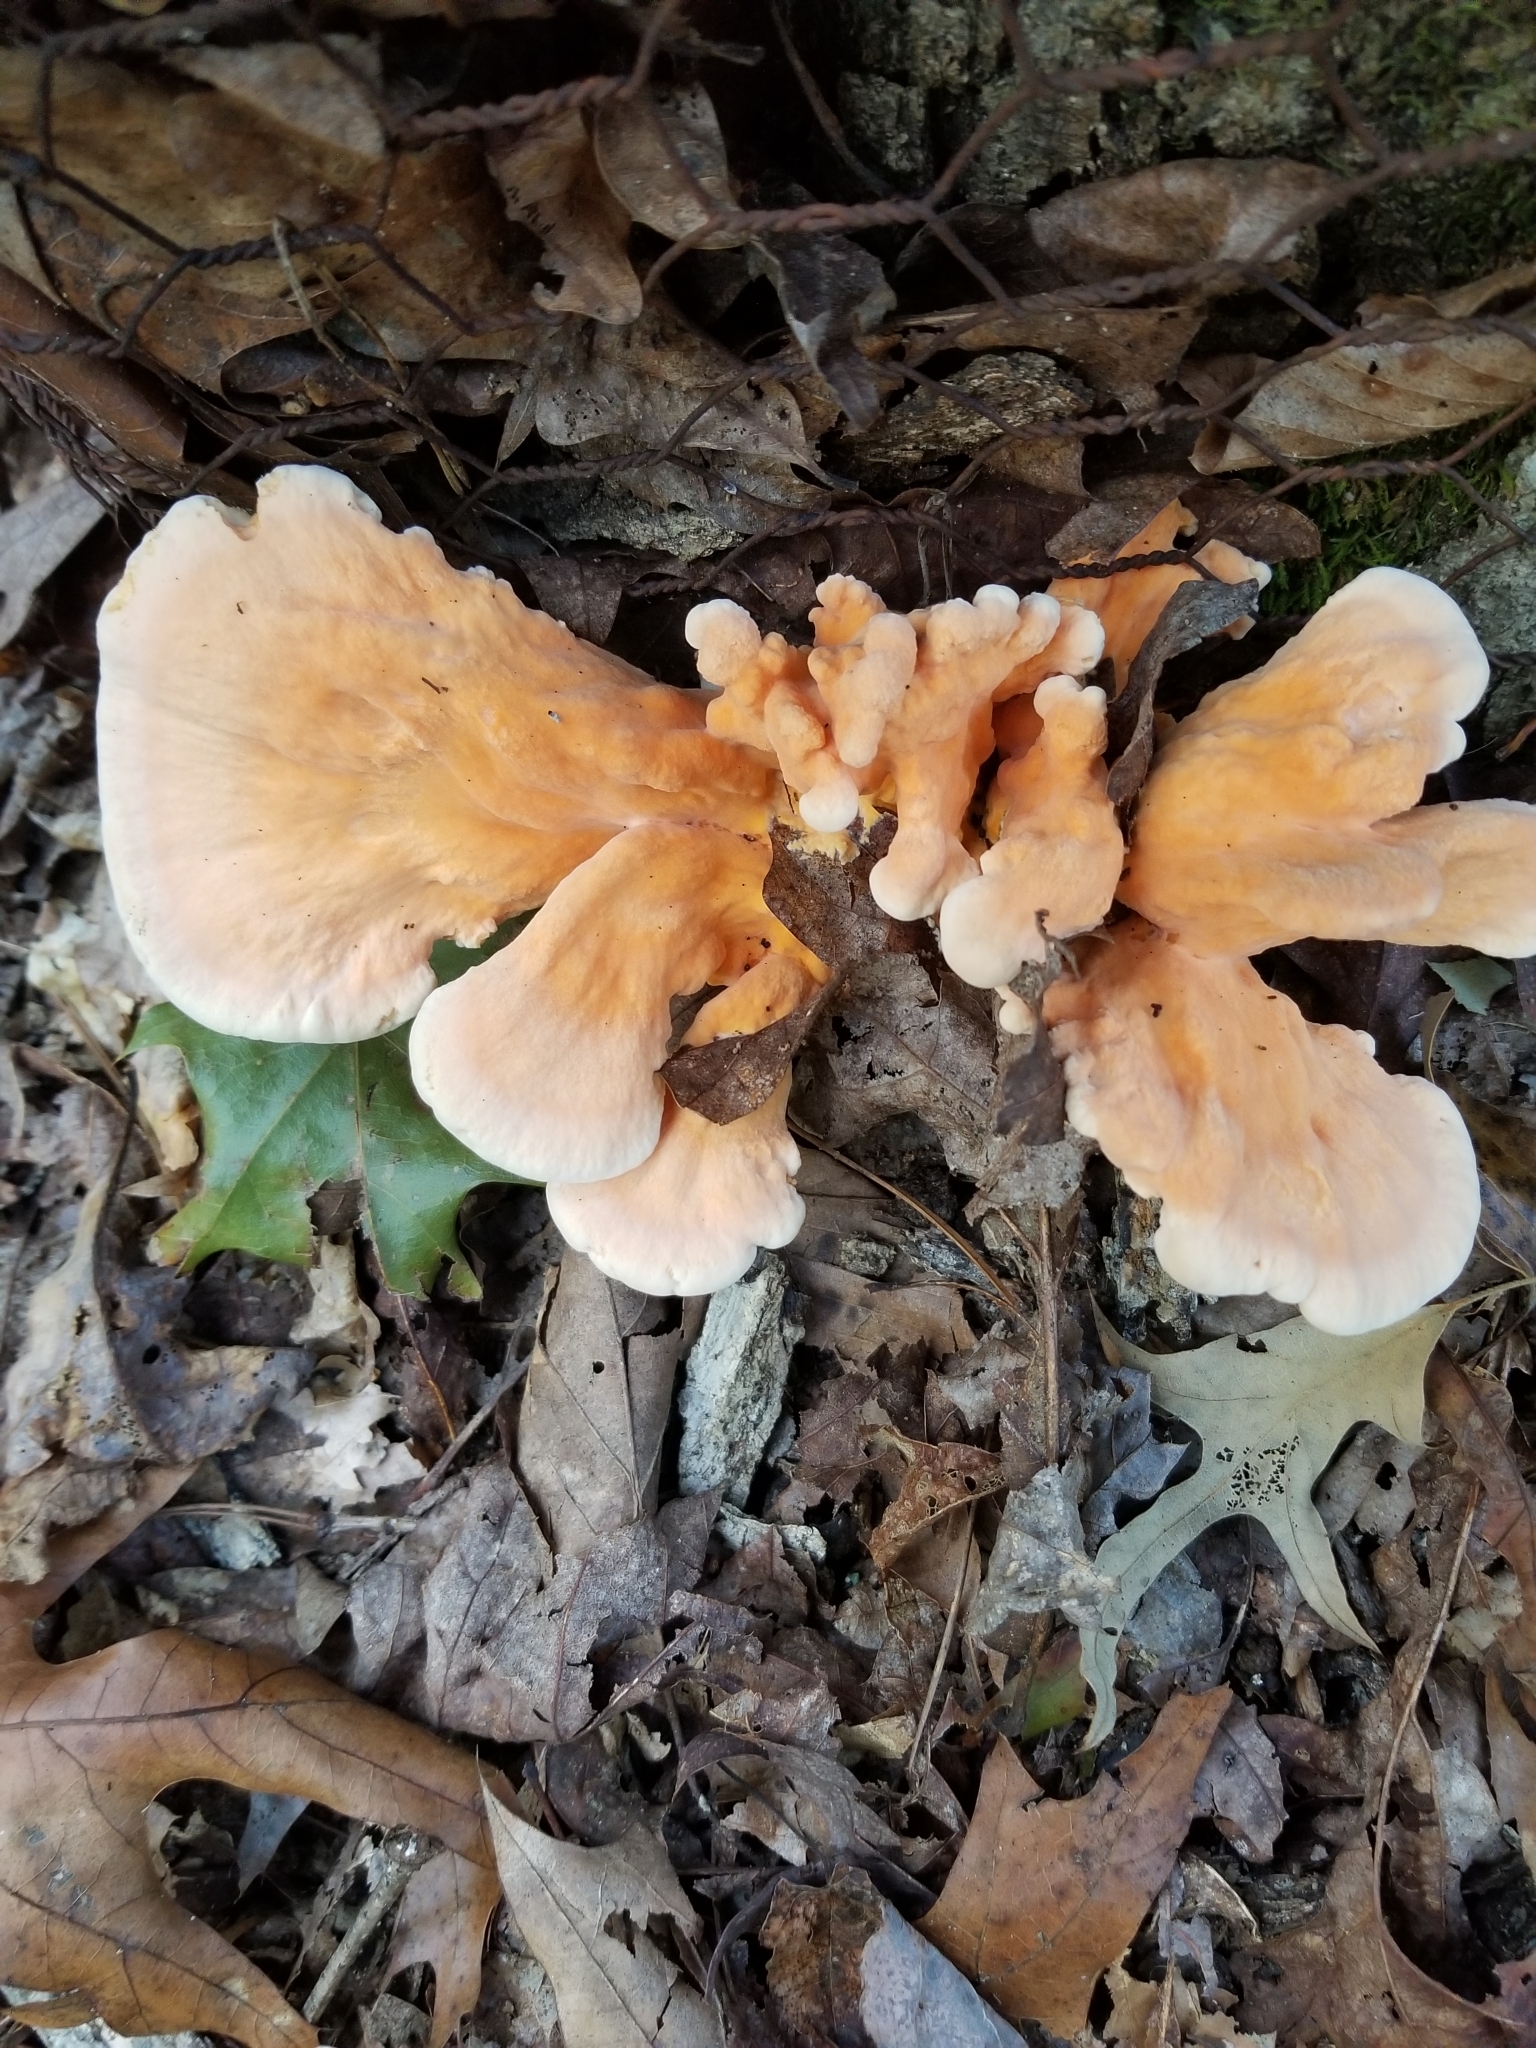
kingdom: Fungi
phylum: Basidiomycota
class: Agaricomycetes
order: Polyporales
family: Laetiporaceae
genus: Laetiporus
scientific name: Laetiporus sulphureus
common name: Chicken of the woods
